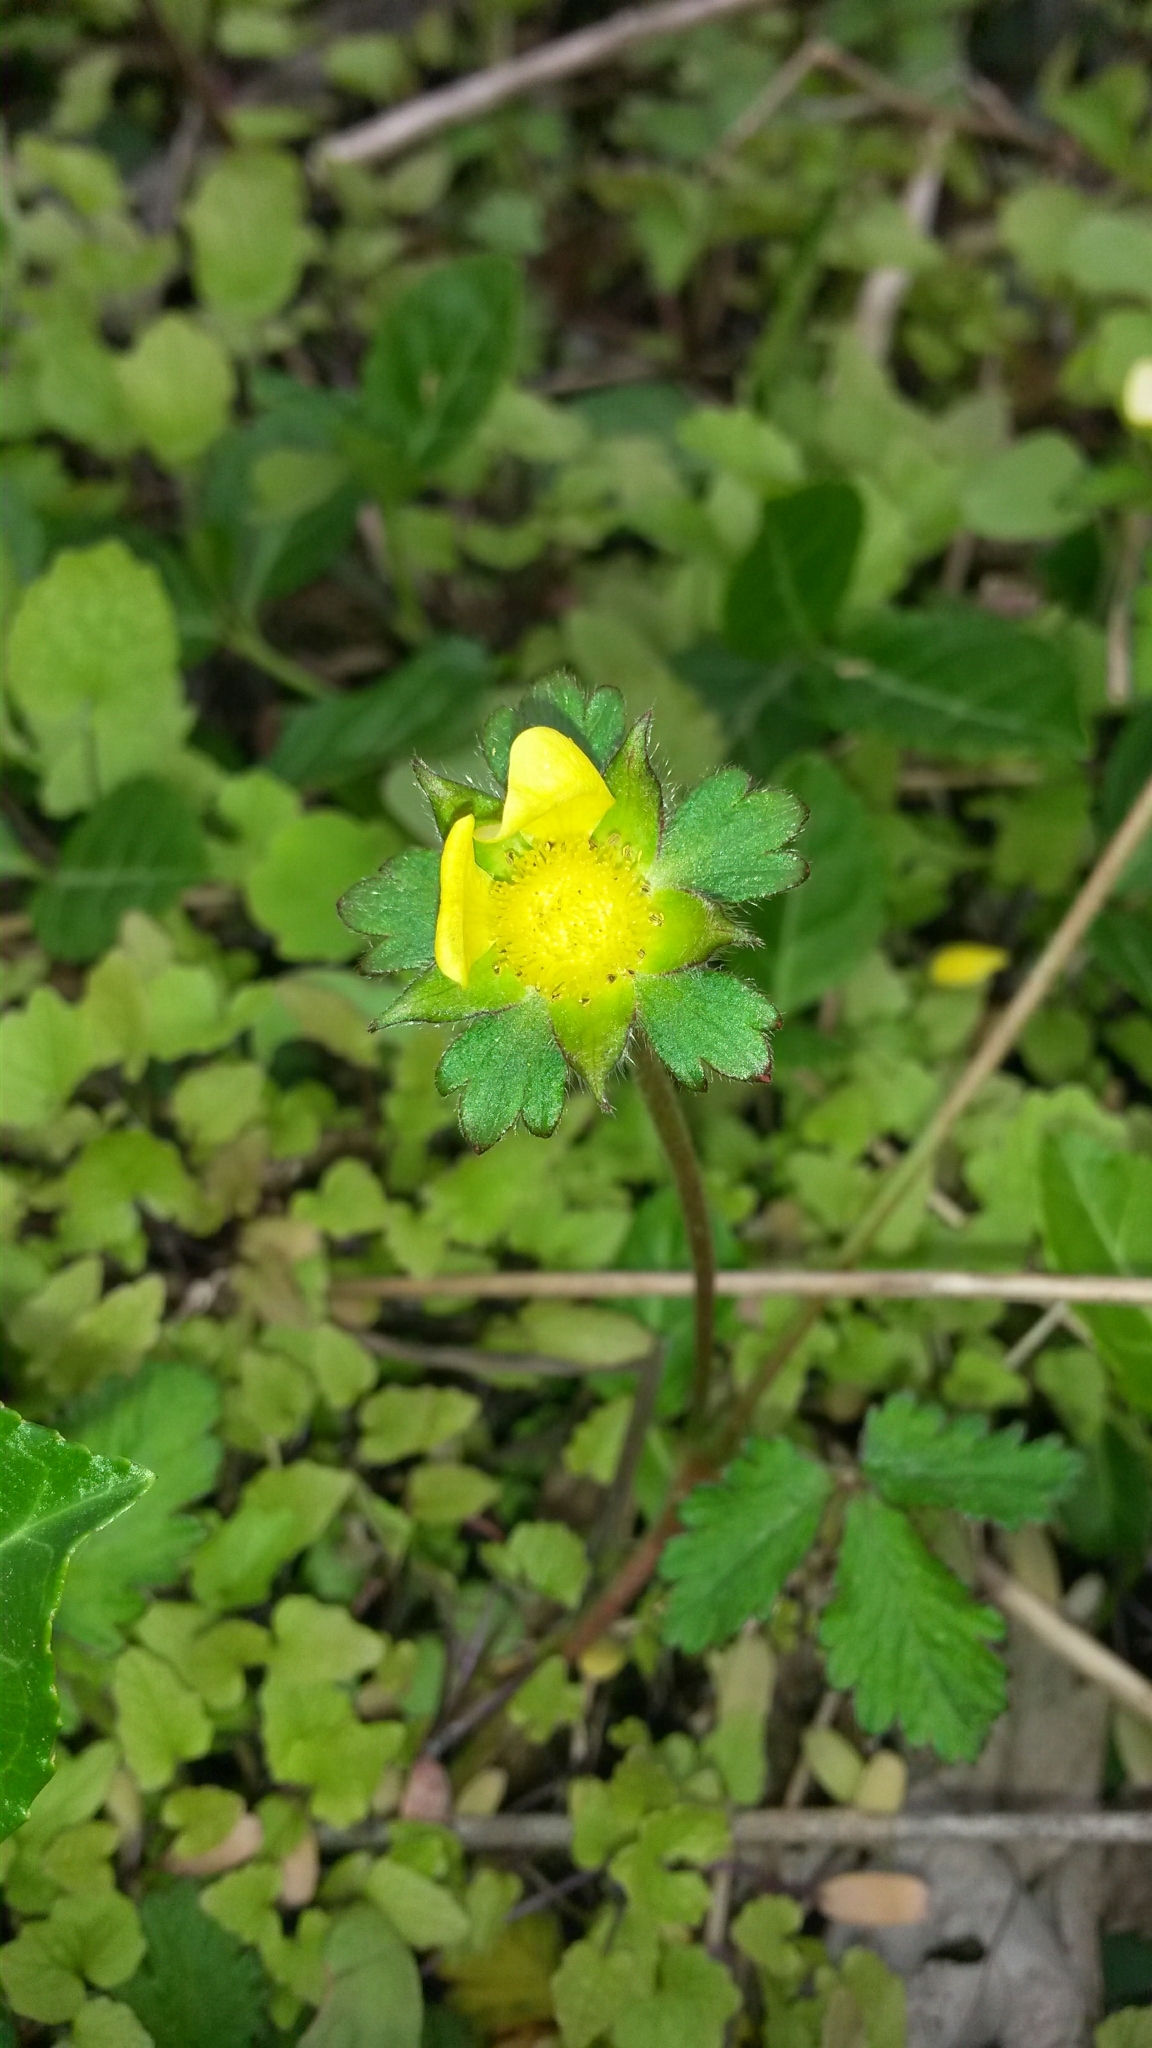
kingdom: Plantae
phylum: Tracheophyta
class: Magnoliopsida
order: Rosales
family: Rosaceae
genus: Potentilla
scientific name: Potentilla indica
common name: Yellow-flowered strawberry
